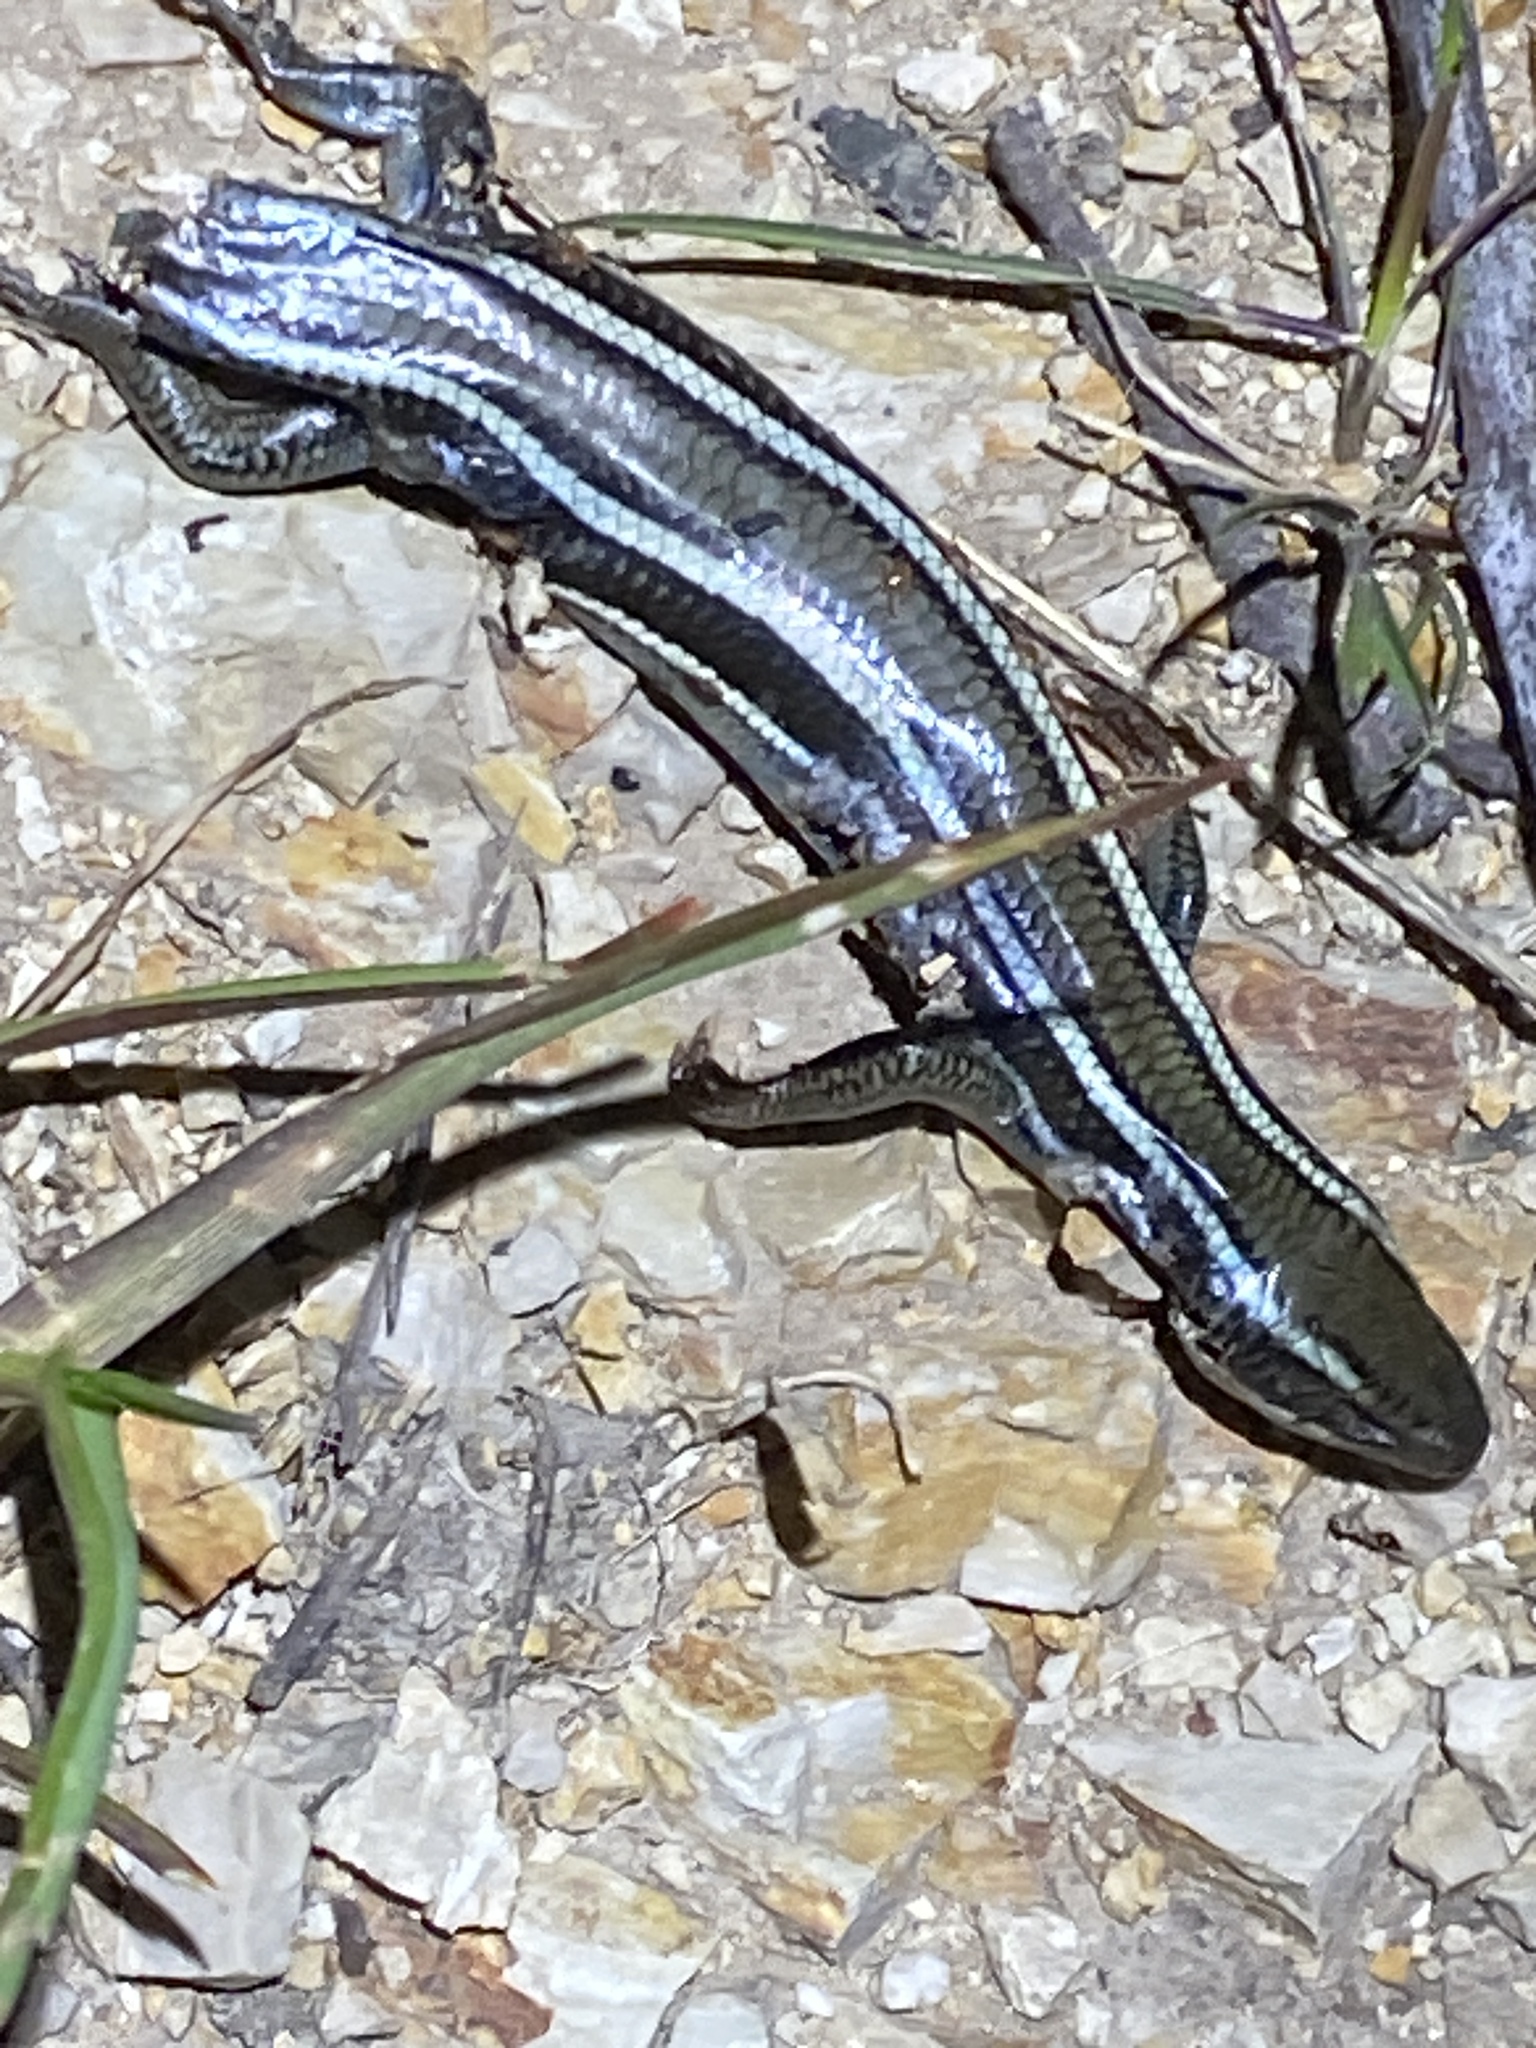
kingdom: Animalia
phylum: Chordata
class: Squamata
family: Scincidae
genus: Plestiodon
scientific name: Plestiodon skiltonianus
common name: Coronado island skink [interparietalis]
